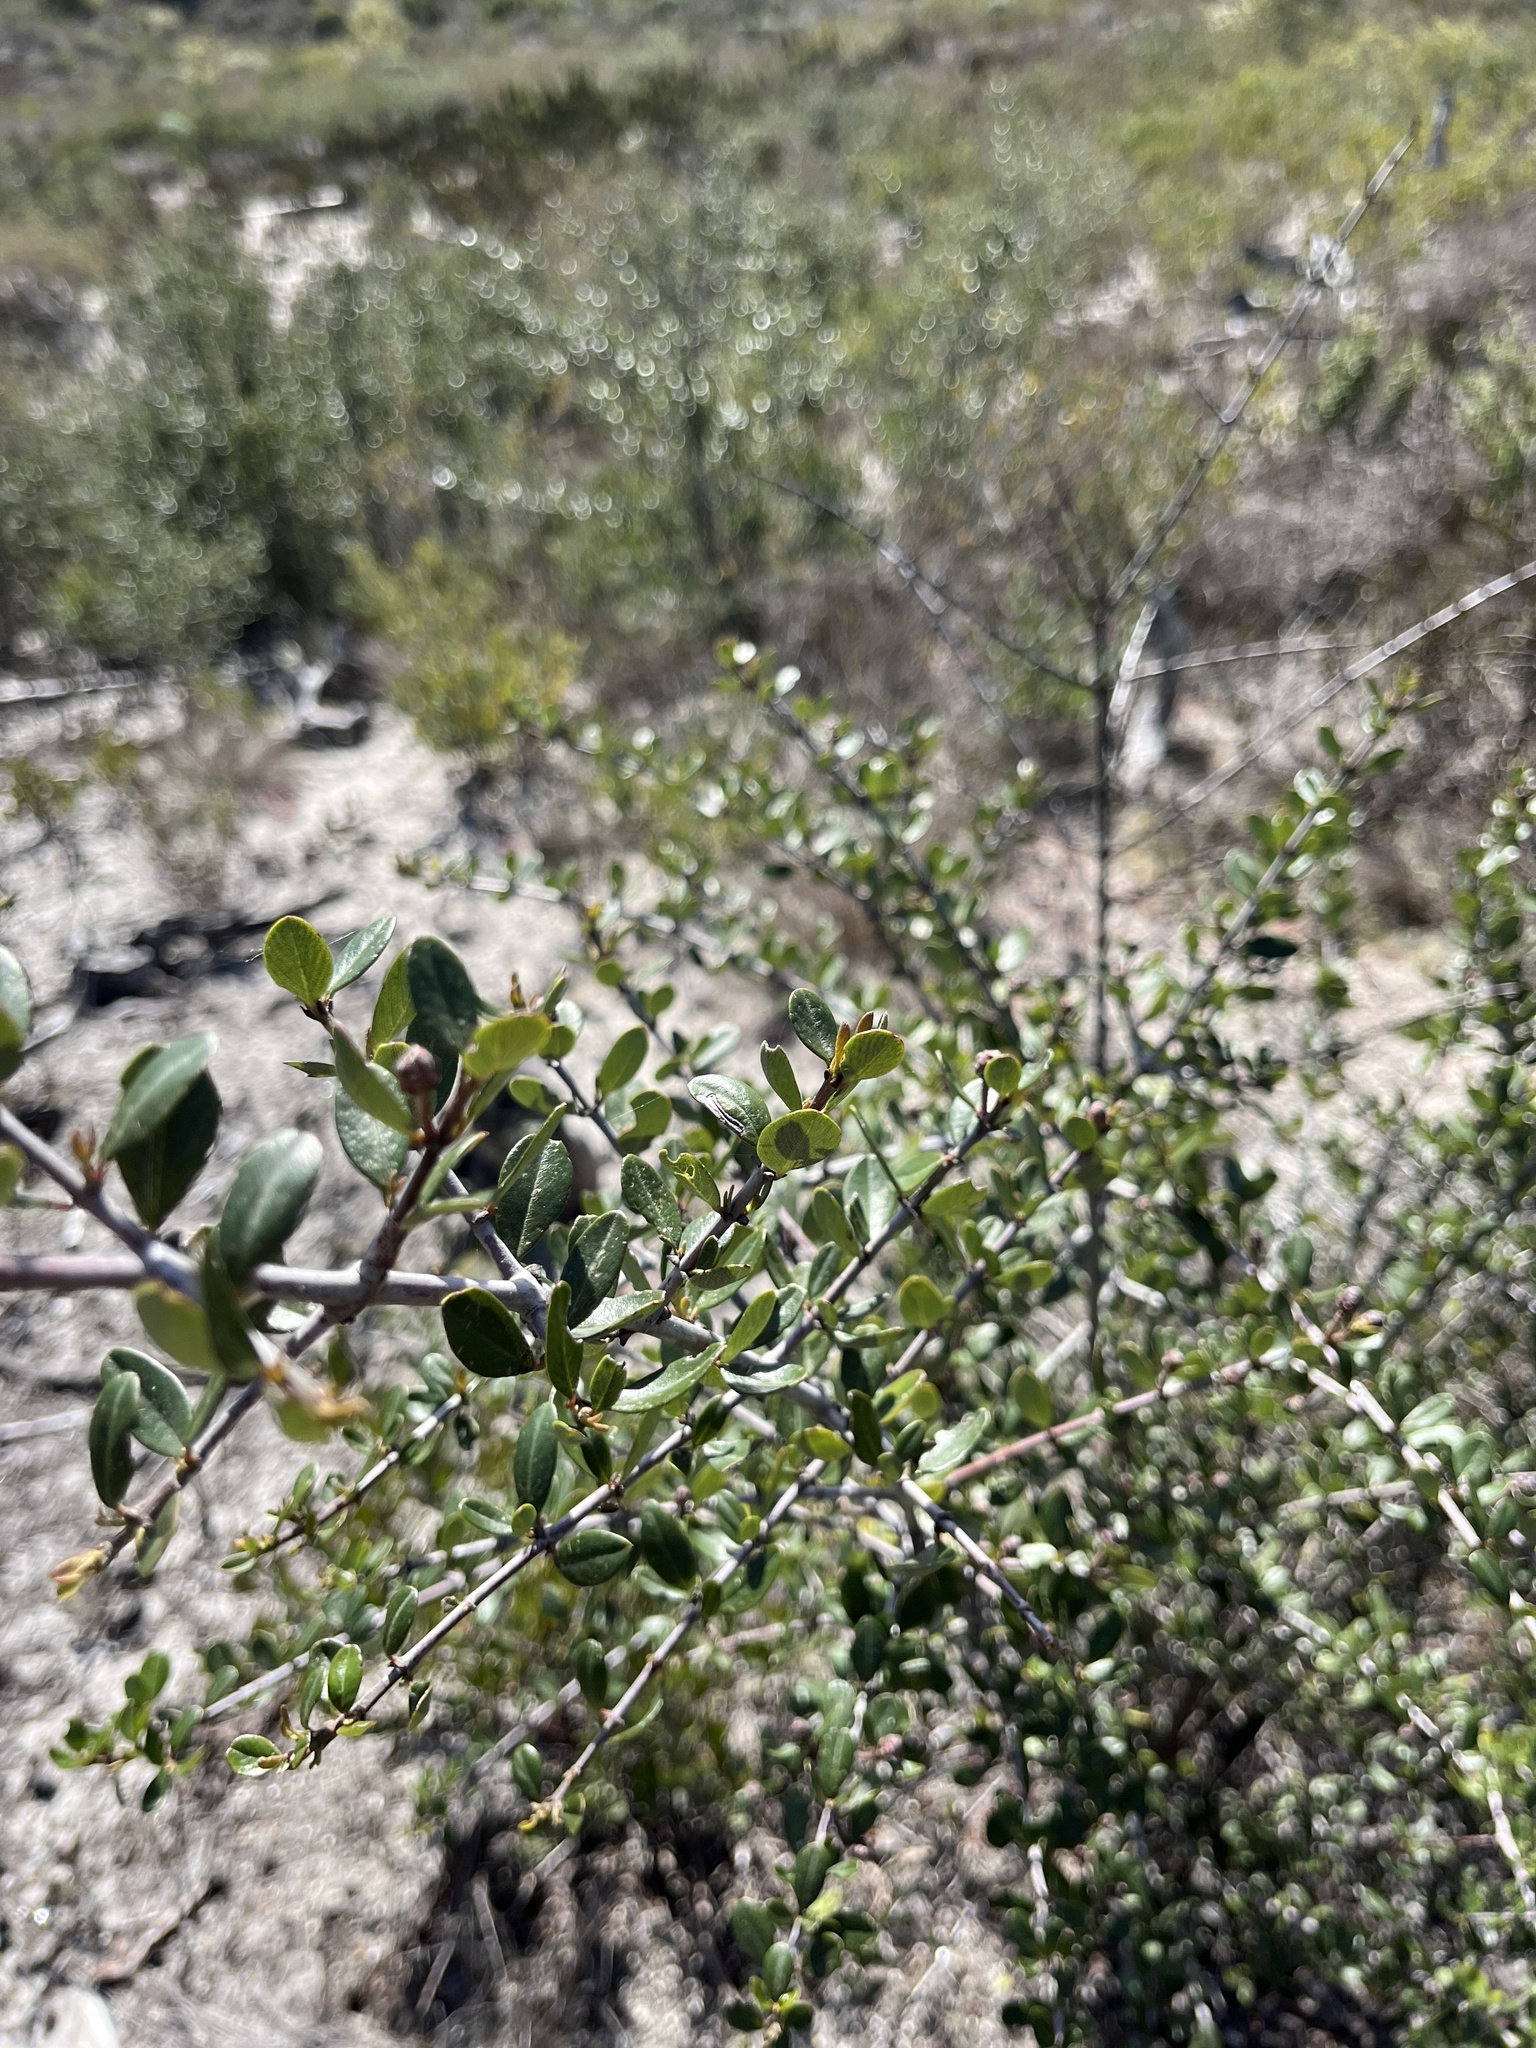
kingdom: Plantae
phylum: Tracheophyta
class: Magnoliopsida
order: Rosales
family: Rhamnaceae
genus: Ceanothus
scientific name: Ceanothus cuneatus
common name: Cuneate ceanothus
